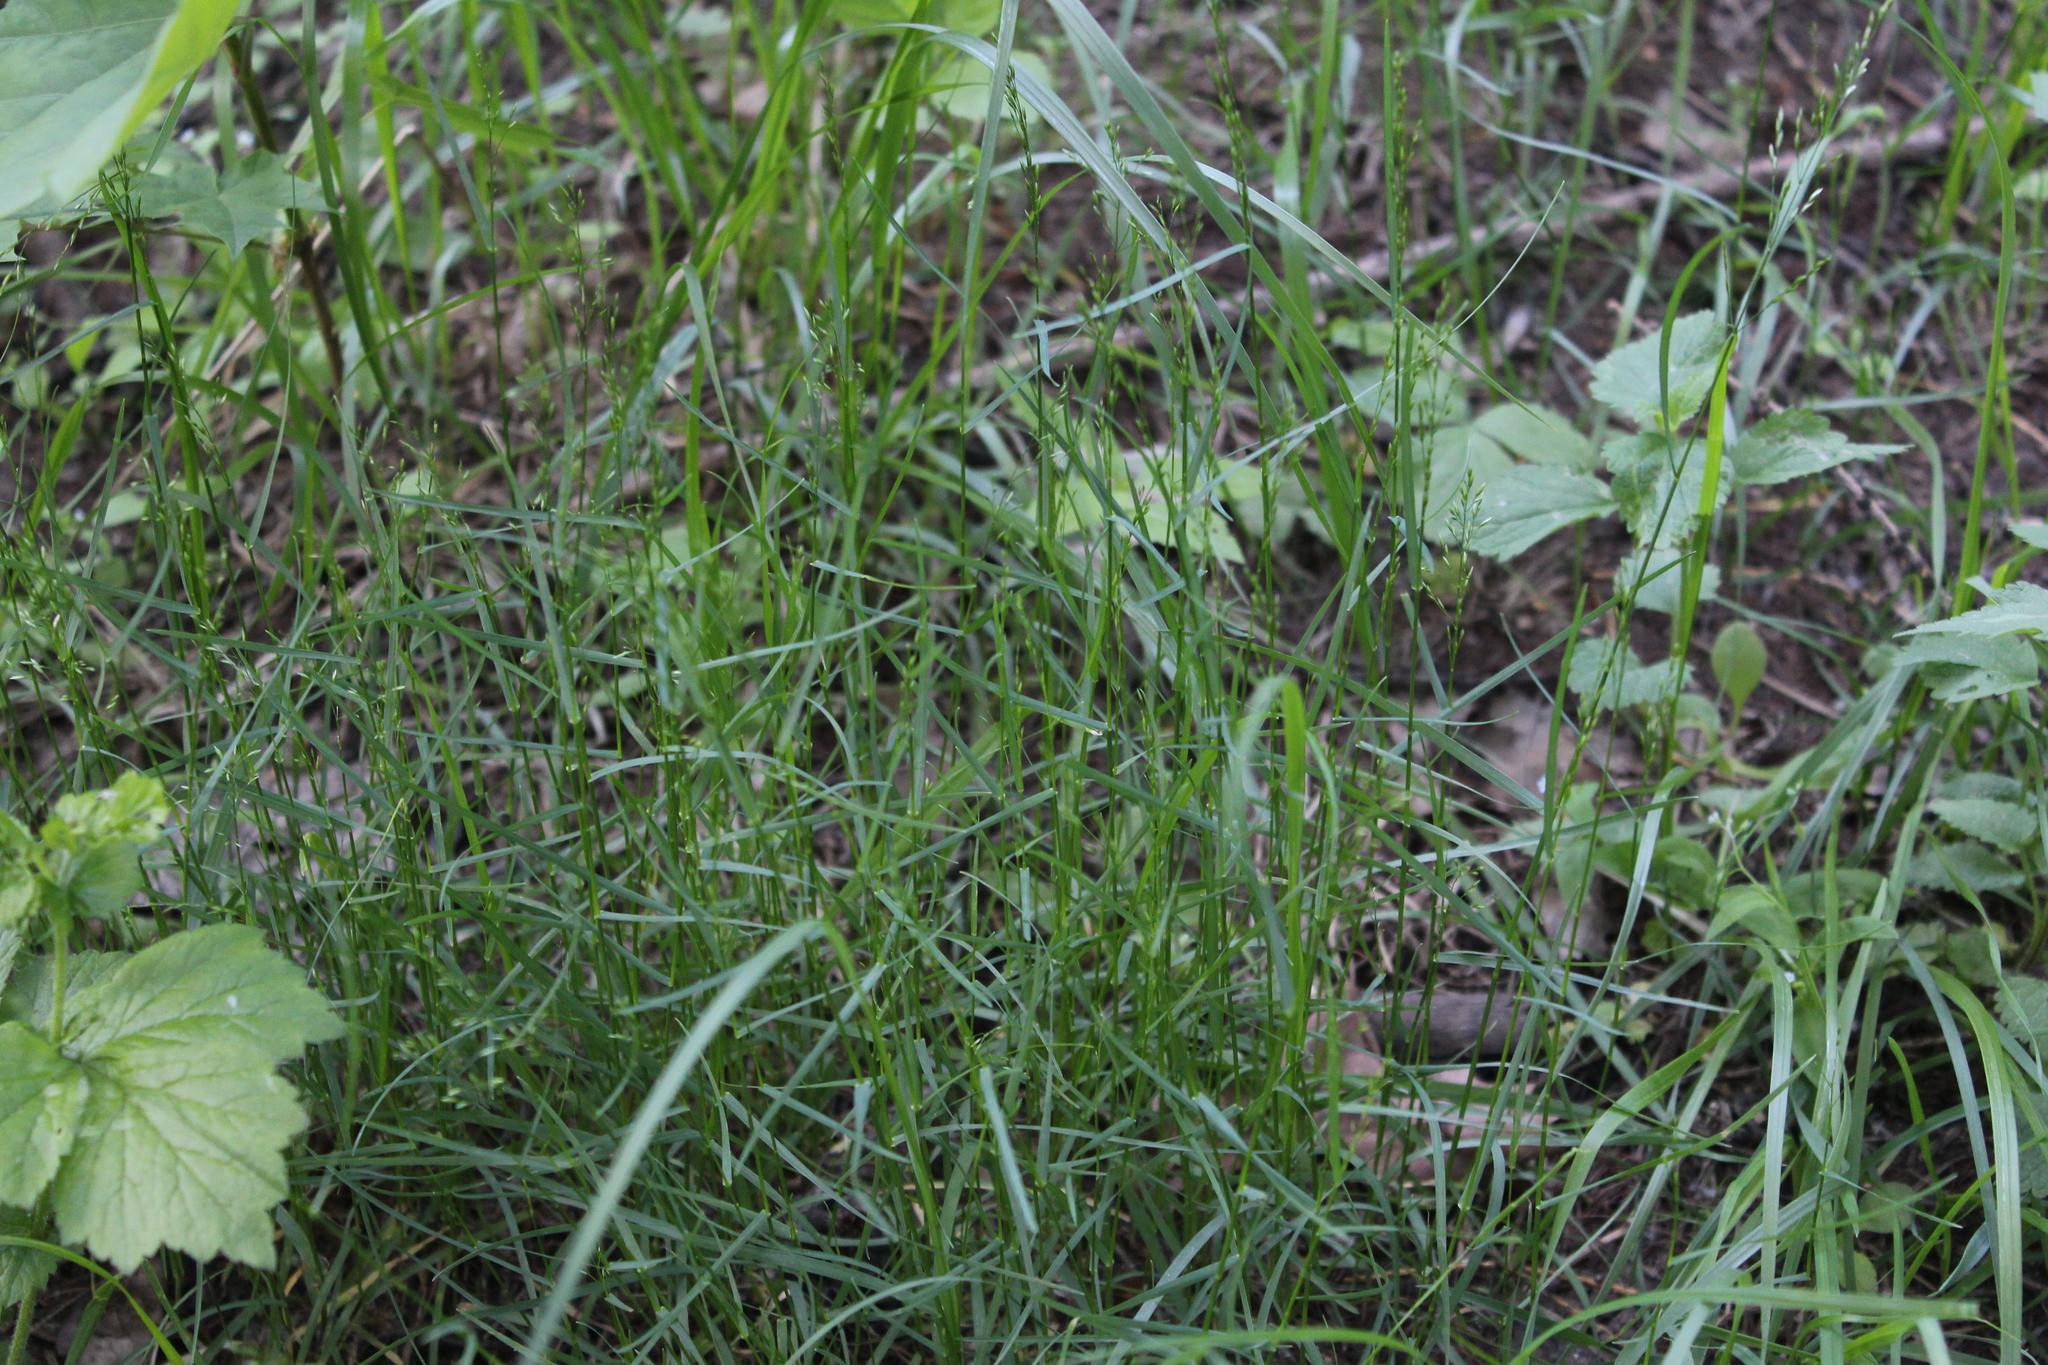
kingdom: Plantae
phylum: Tracheophyta
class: Liliopsida
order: Poales
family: Poaceae
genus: Poa
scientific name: Poa nemoralis
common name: Wood bluegrass
